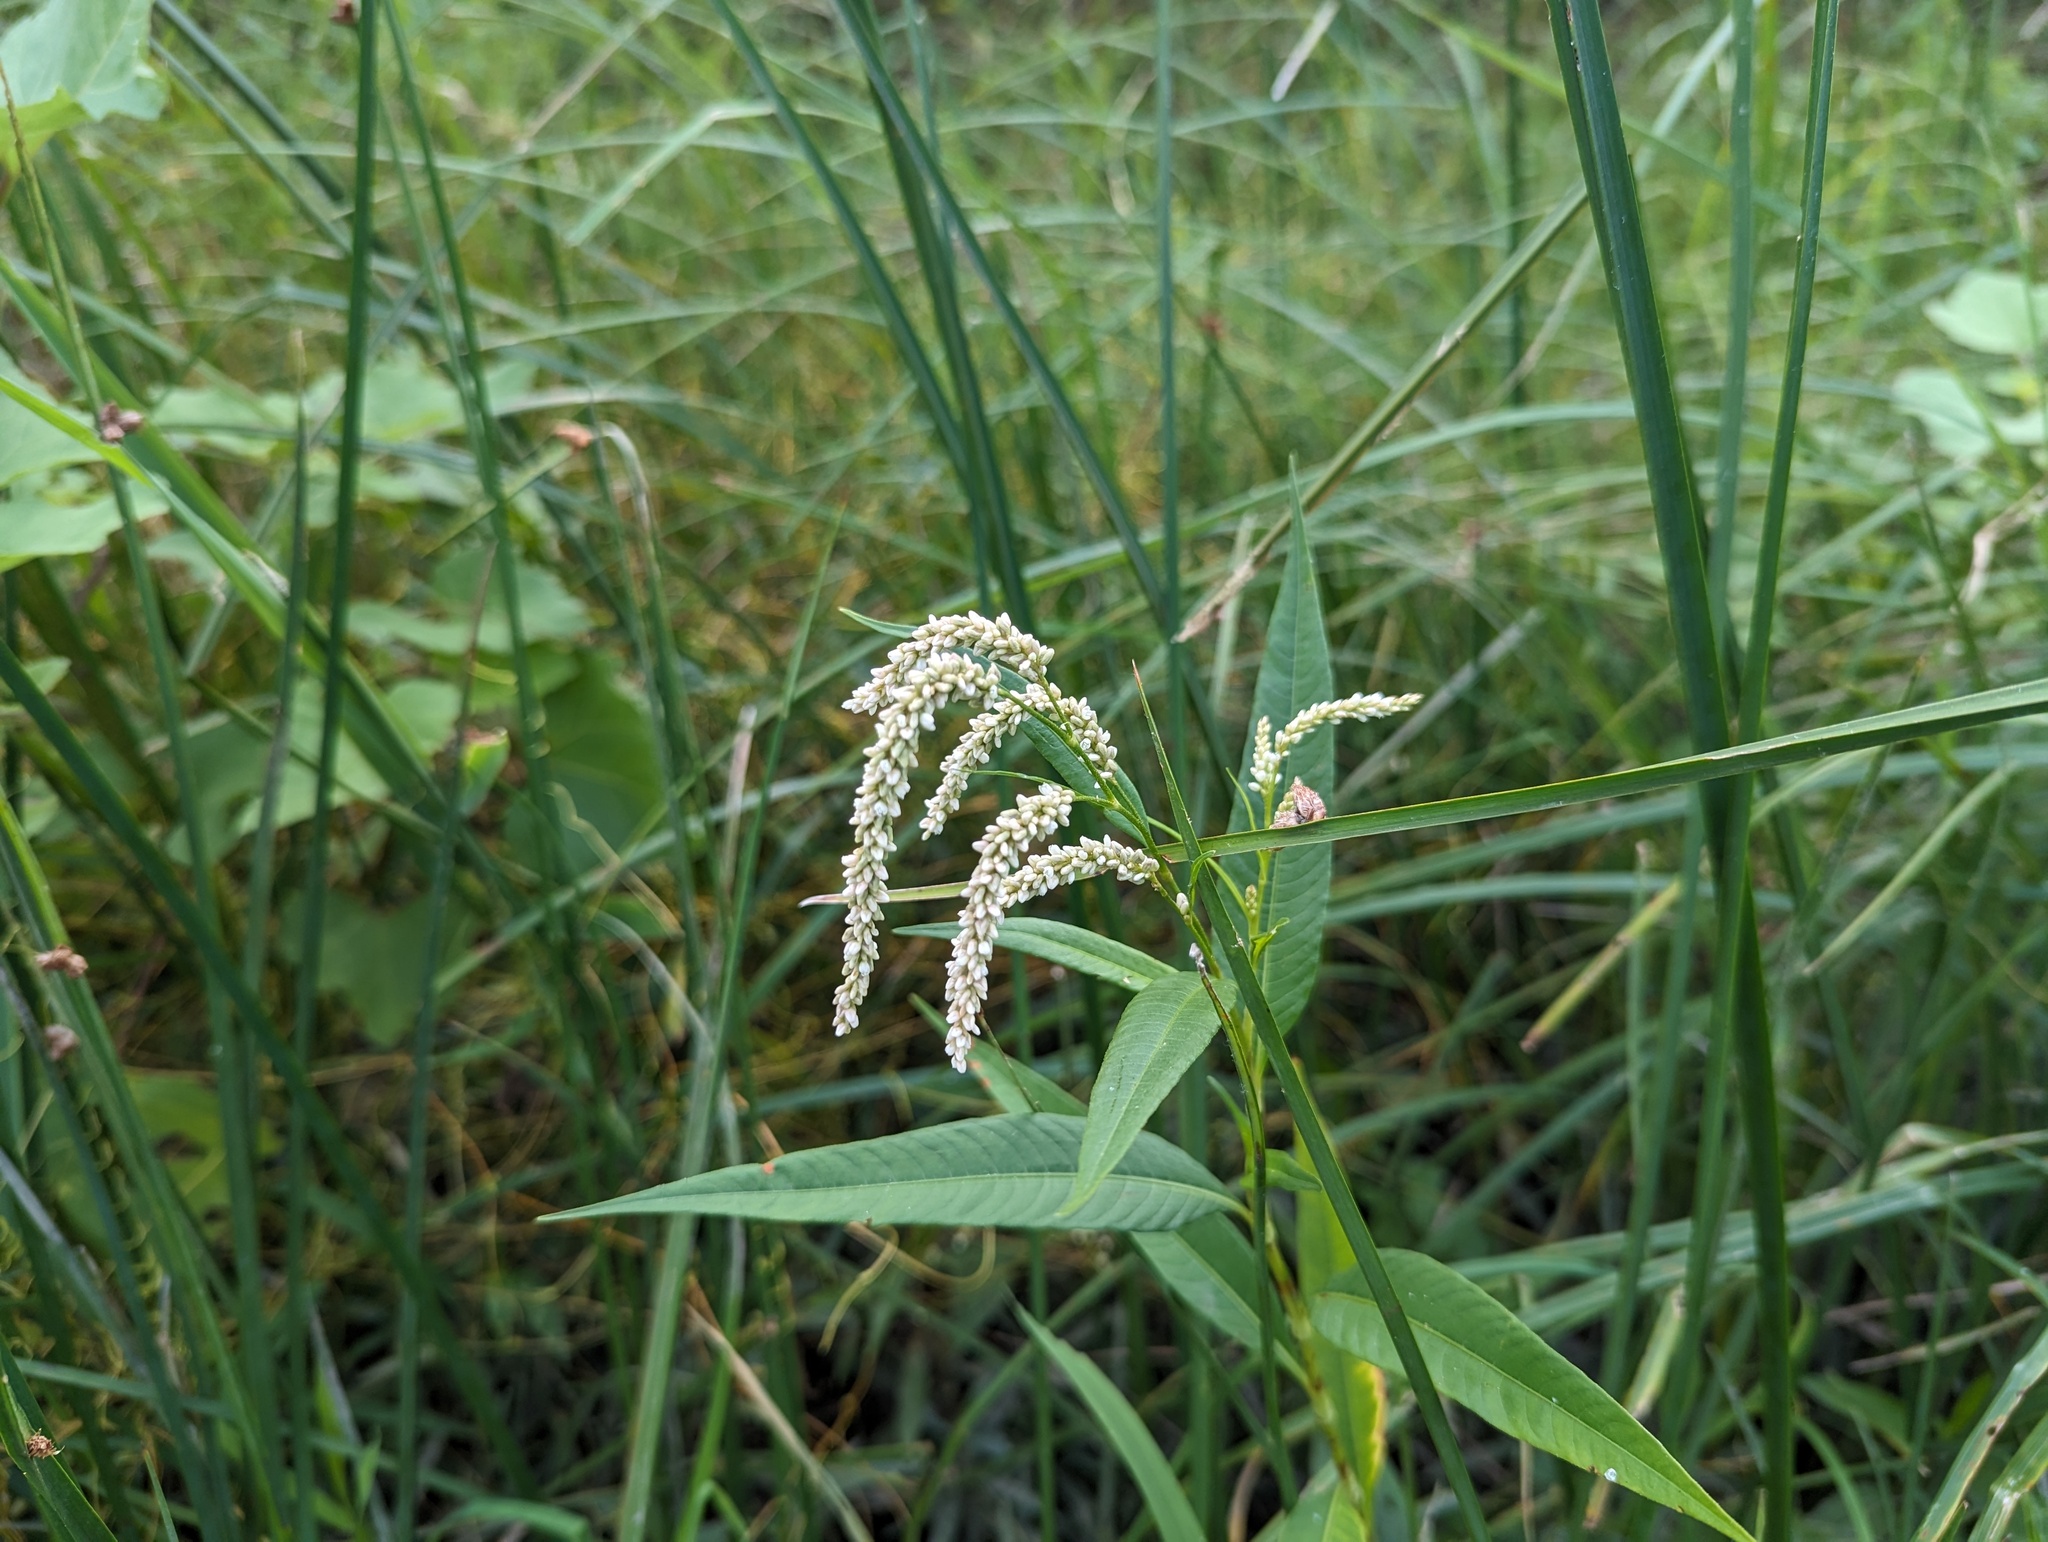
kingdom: Plantae
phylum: Tracheophyta
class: Magnoliopsida
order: Caryophyllales
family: Polygonaceae
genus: Persicaria
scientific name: Persicaria lapathifolia
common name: Curlytop knotweed
